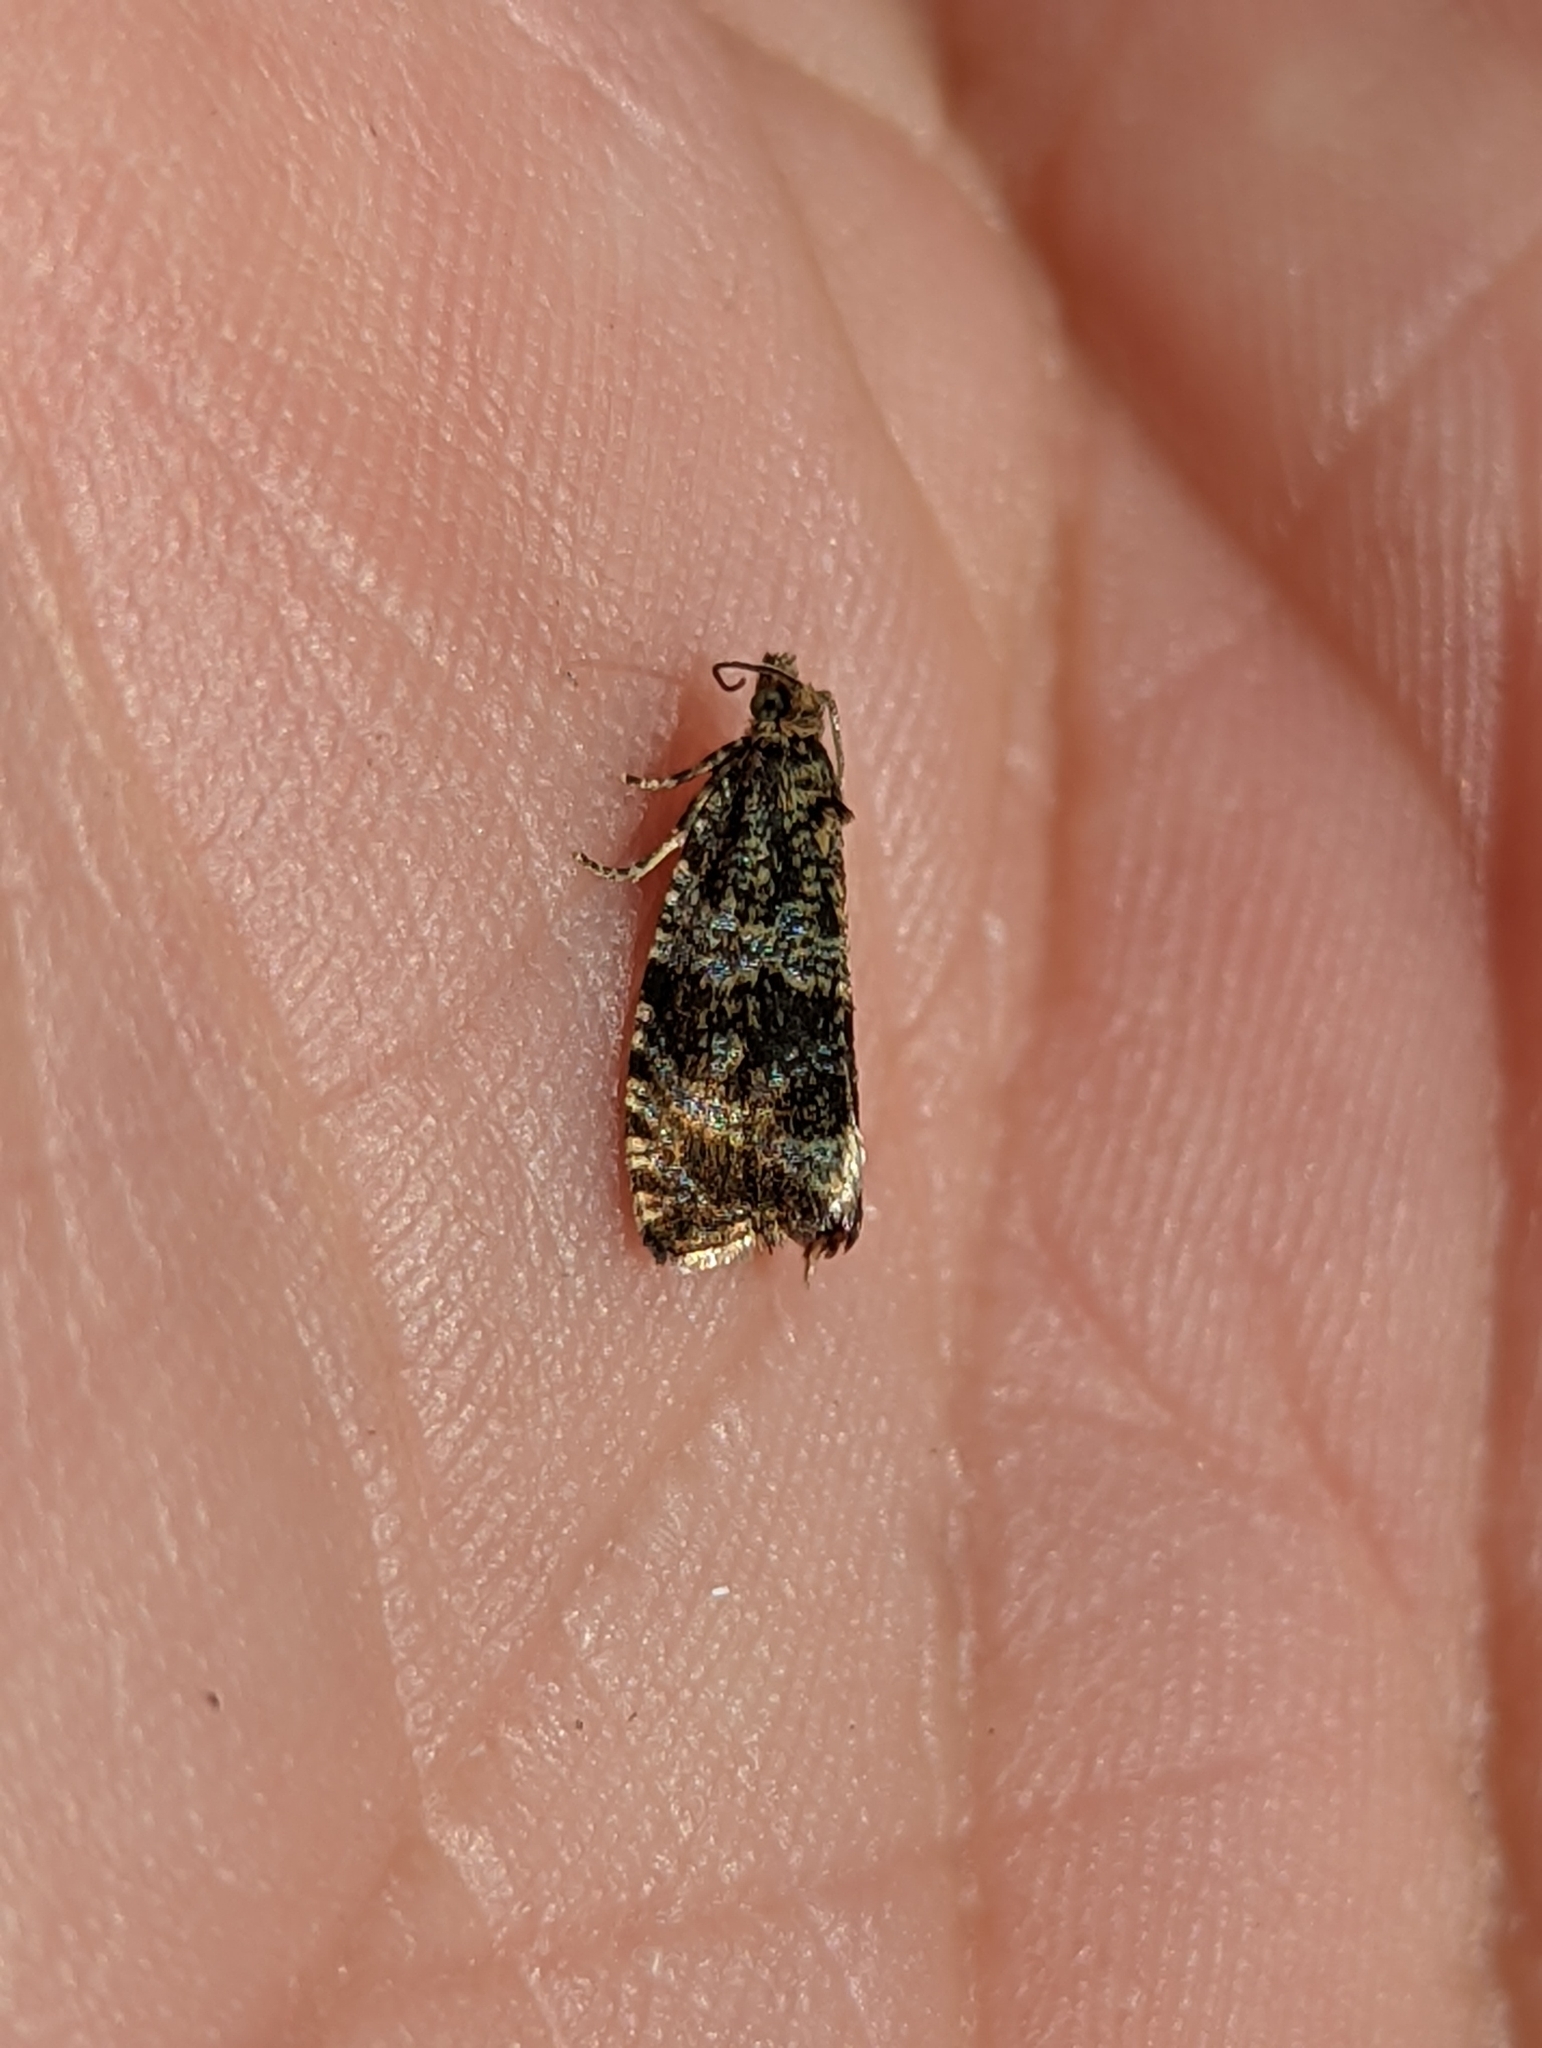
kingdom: Animalia
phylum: Arthropoda
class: Insecta
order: Lepidoptera
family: Tortricidae
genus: Syricoris
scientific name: Syricoris lacunana
